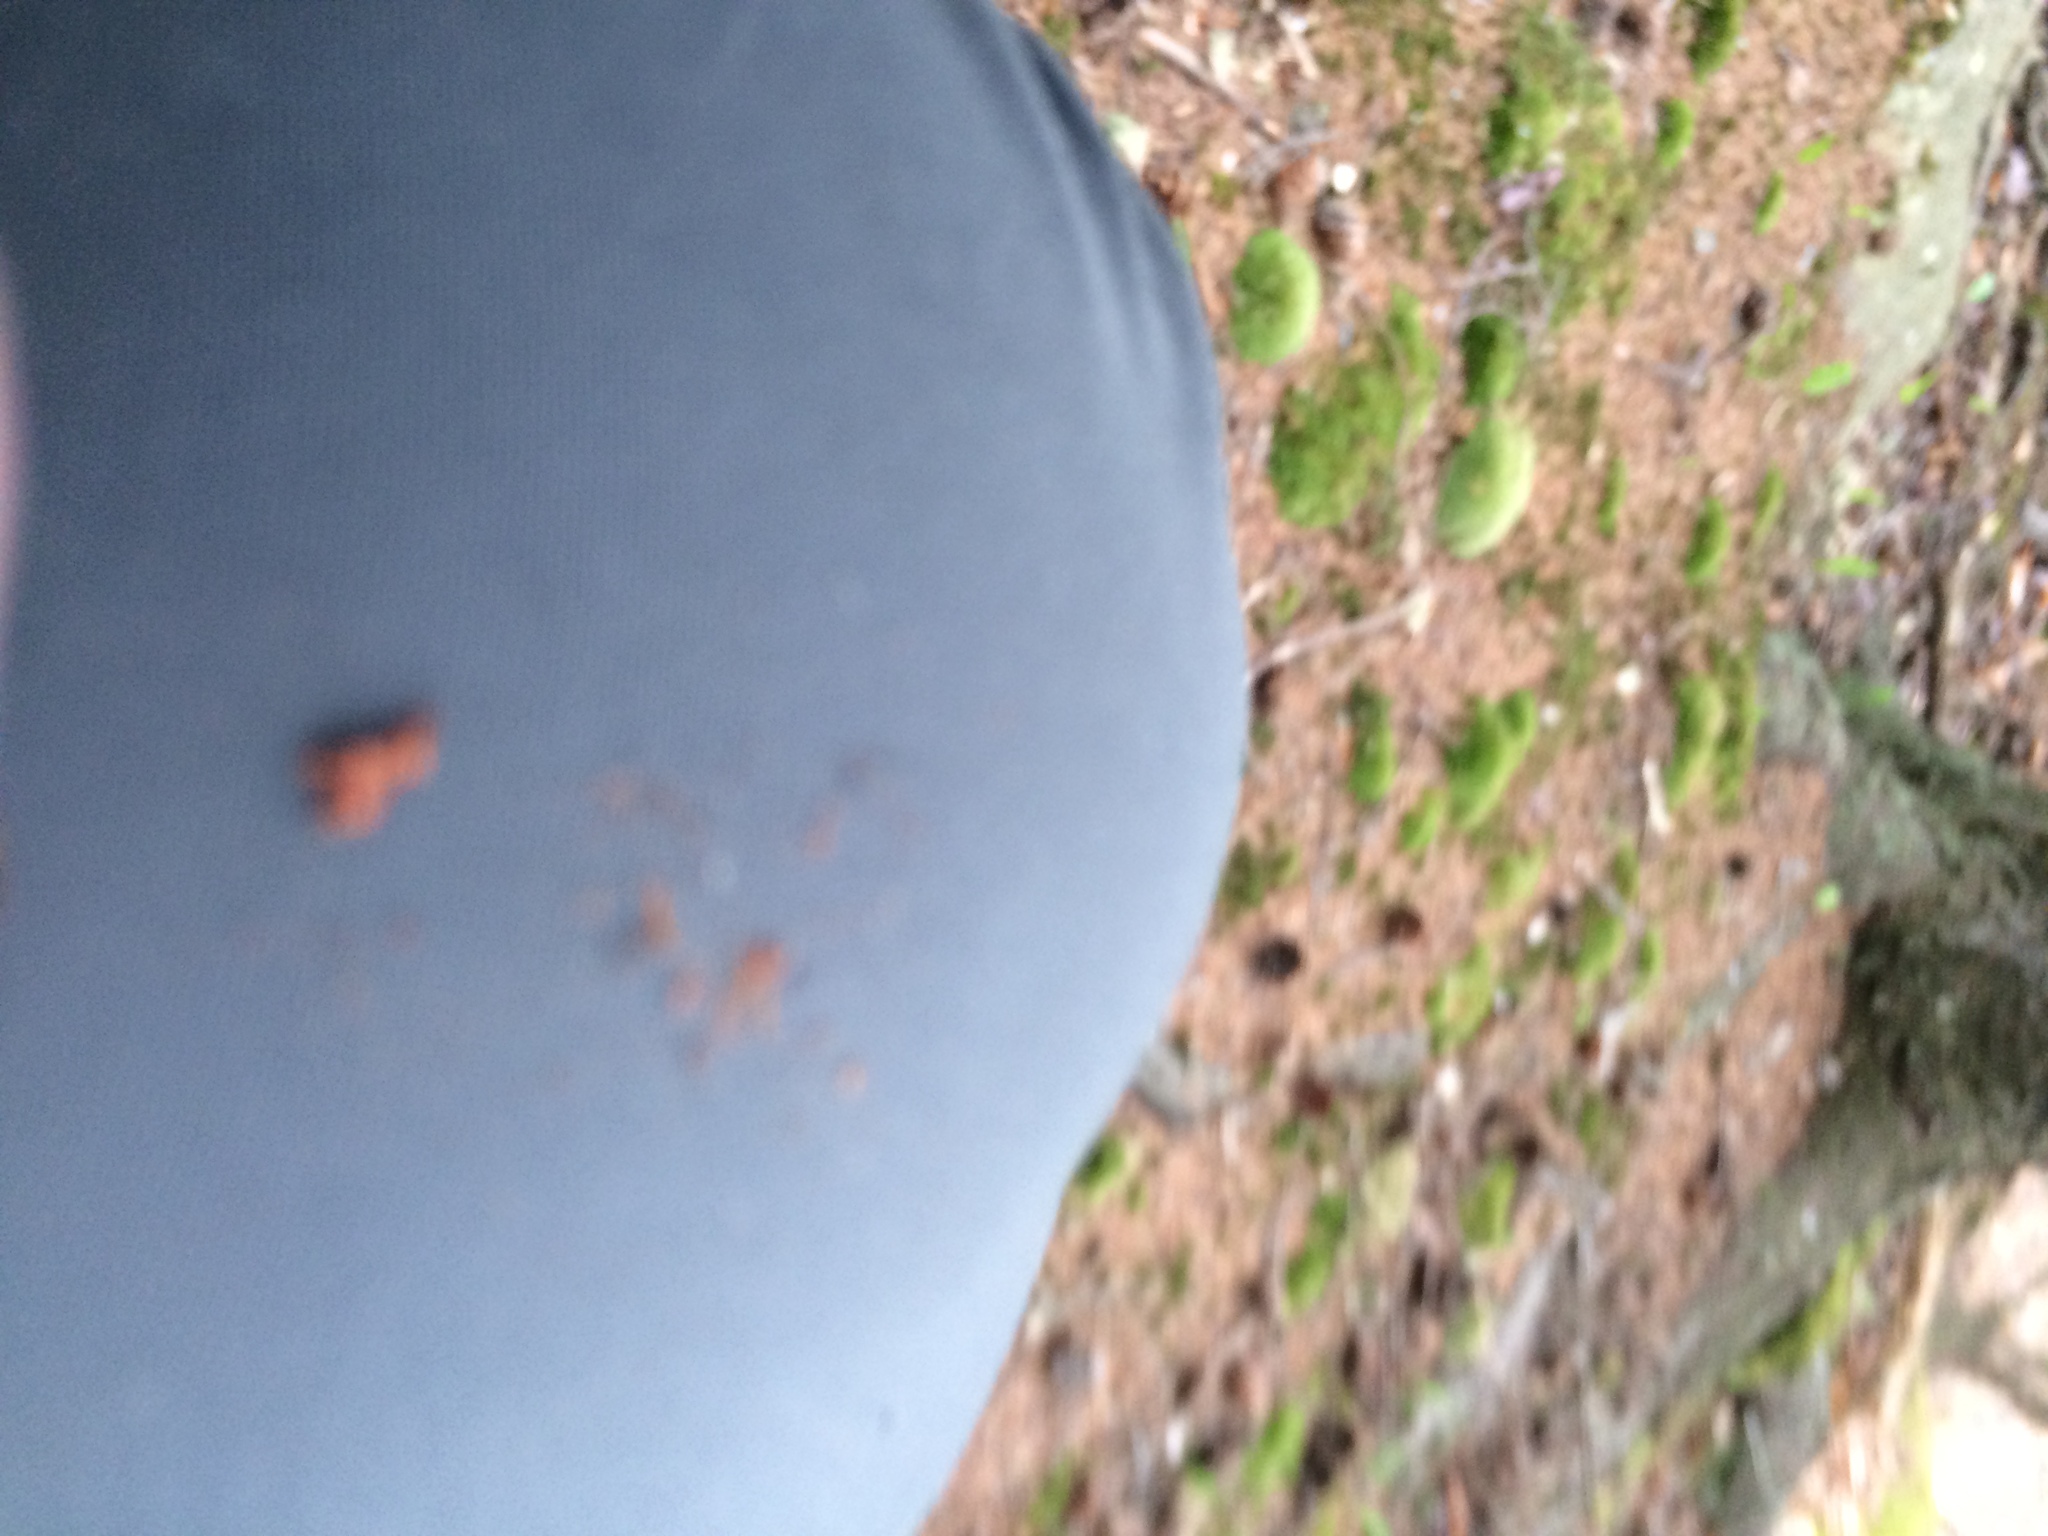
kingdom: Plantae
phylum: Tracheophyta
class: Pinopsida
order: Pinales
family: Pinaceae
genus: Picea
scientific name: Picea rubens
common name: Red spruce
